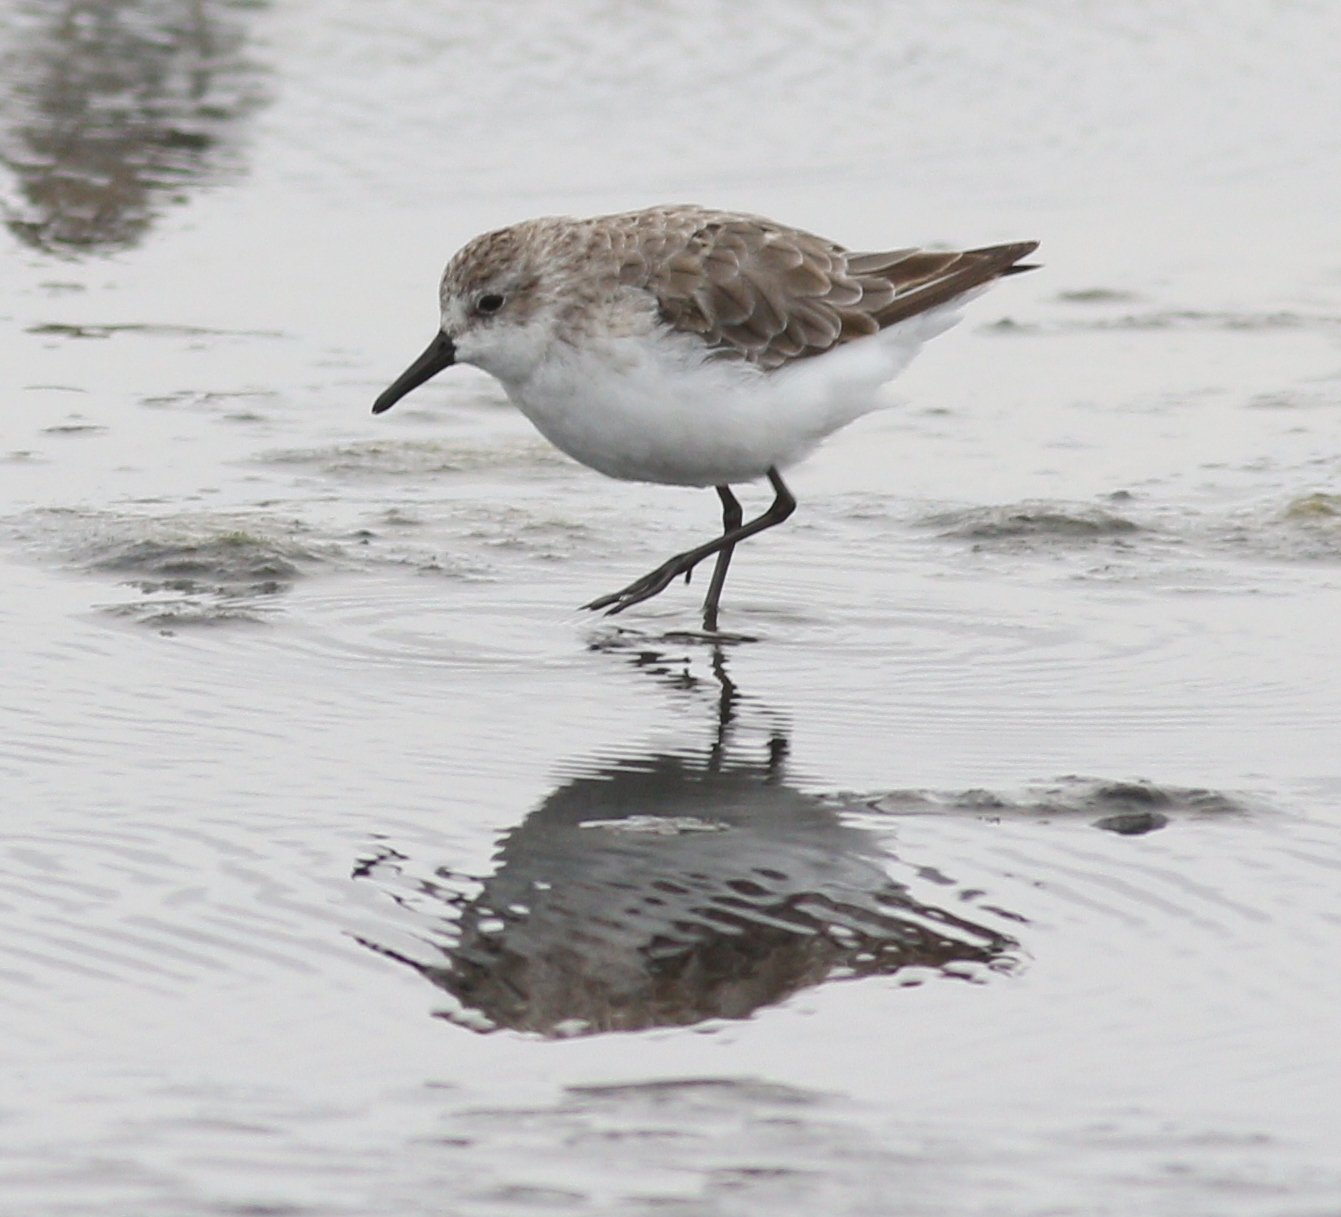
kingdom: Animalia
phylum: Chordata
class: Aves
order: Charadriiformes
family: Scolopacidae
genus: Calidris
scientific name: Calidris pusilla
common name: Semipalmated sandpiper
